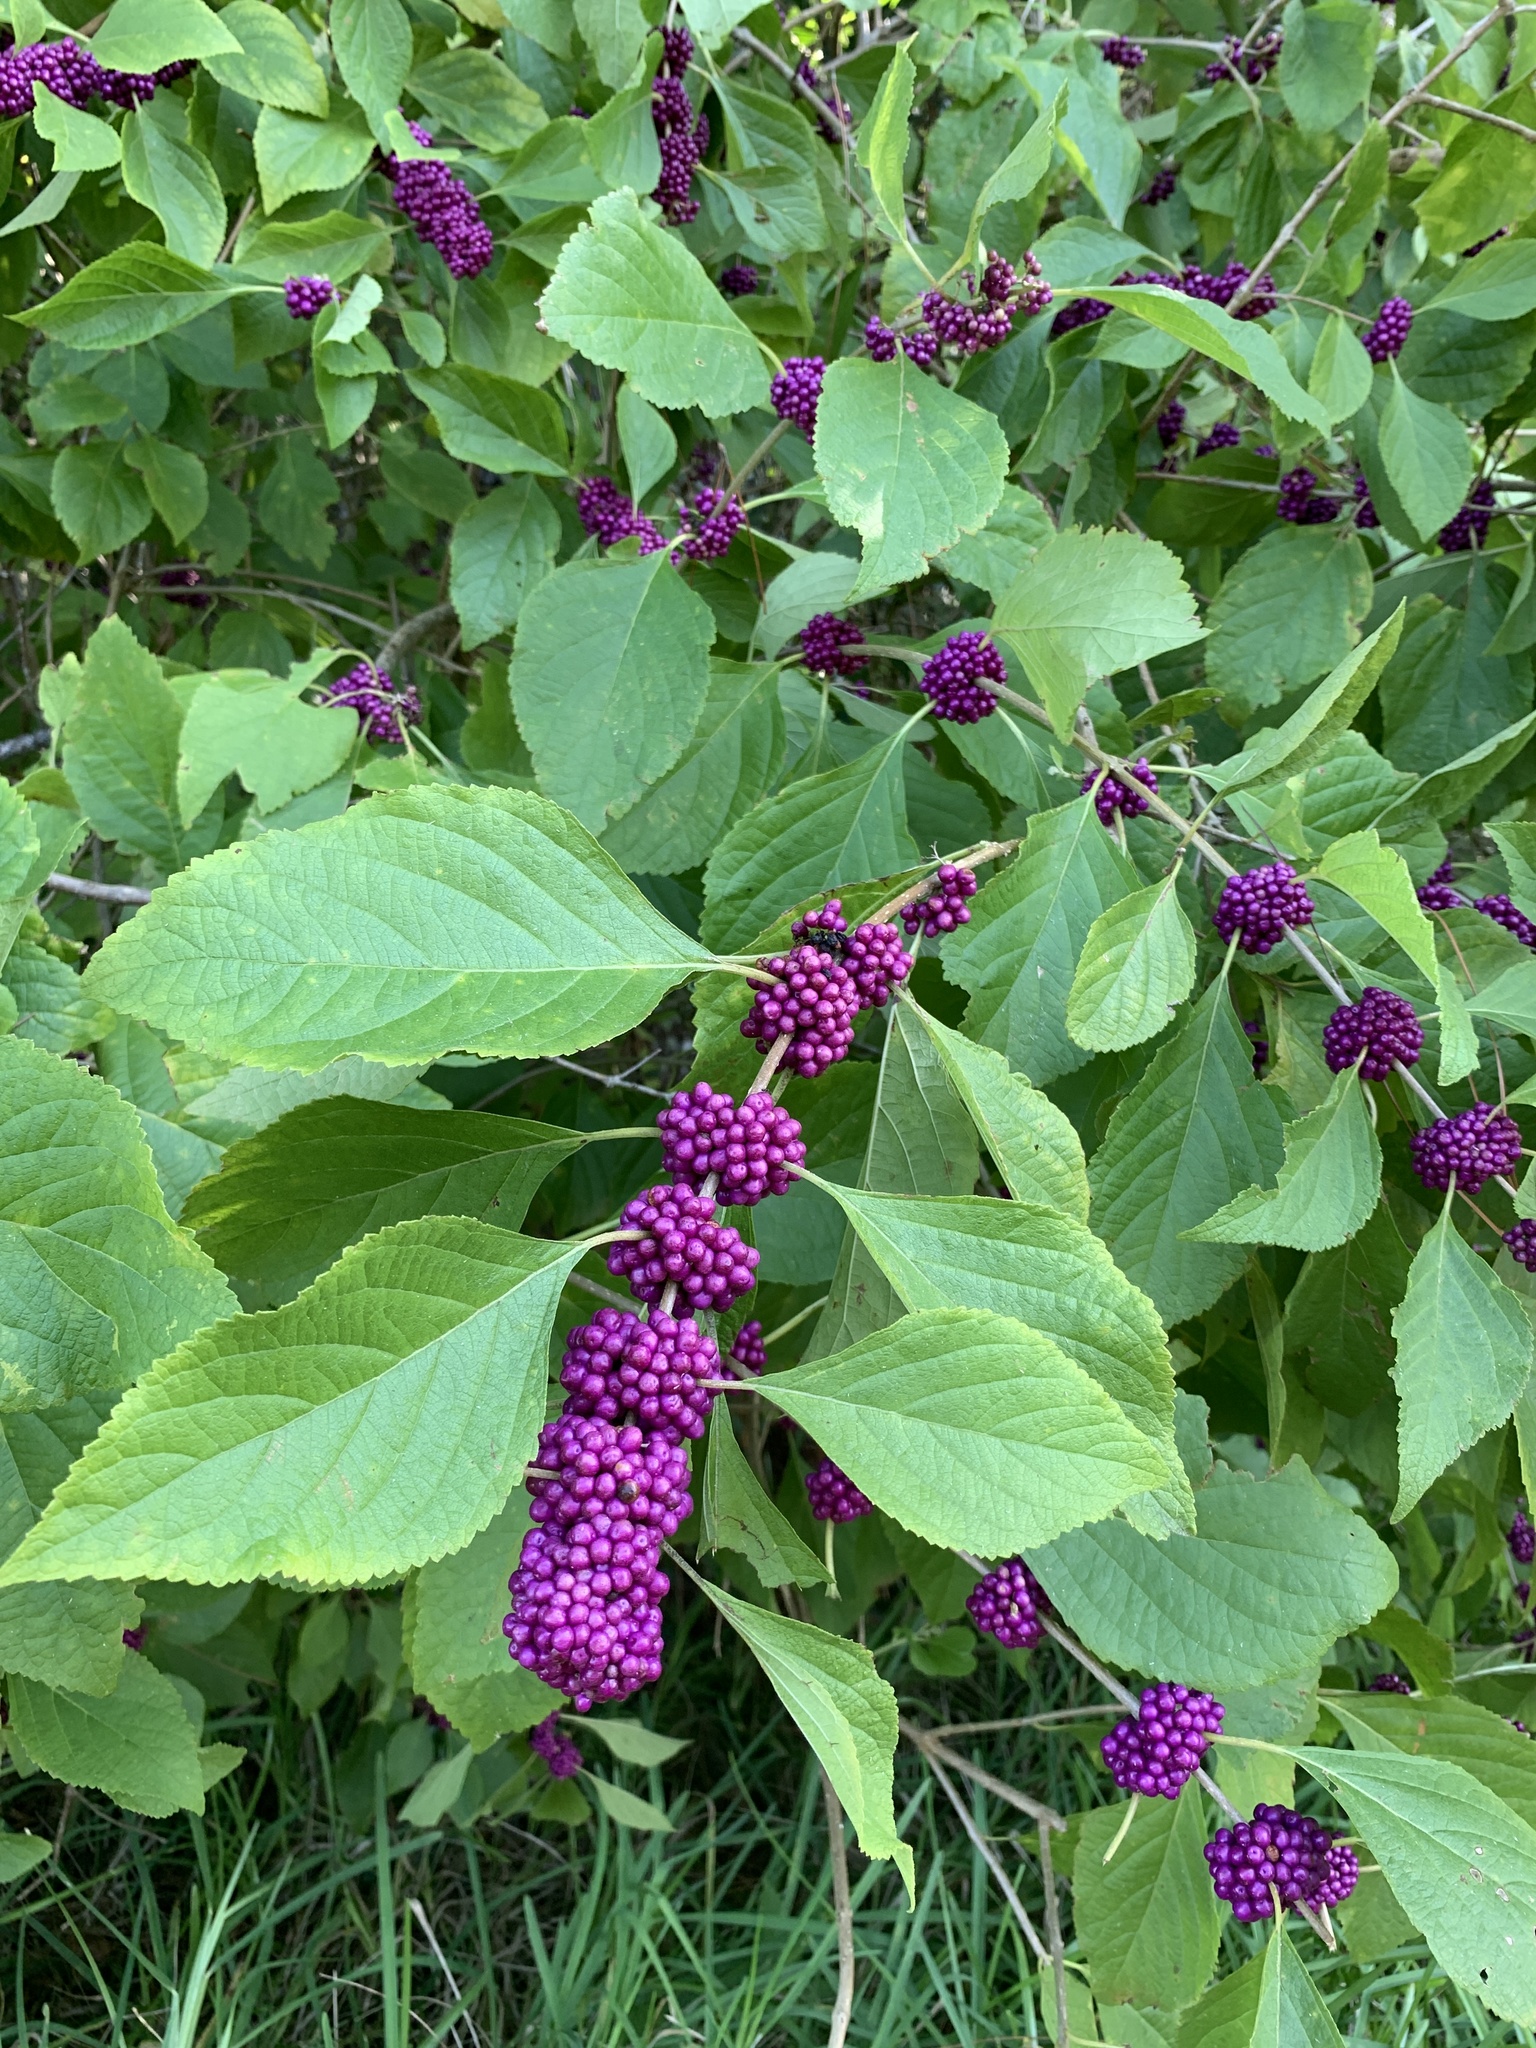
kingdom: Plantae
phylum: Tracheophyta
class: Magnoliopsida
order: Lamiales
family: Lamiaceae
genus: Callicarpa
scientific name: Callicarpa americana
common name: American beautyberry
